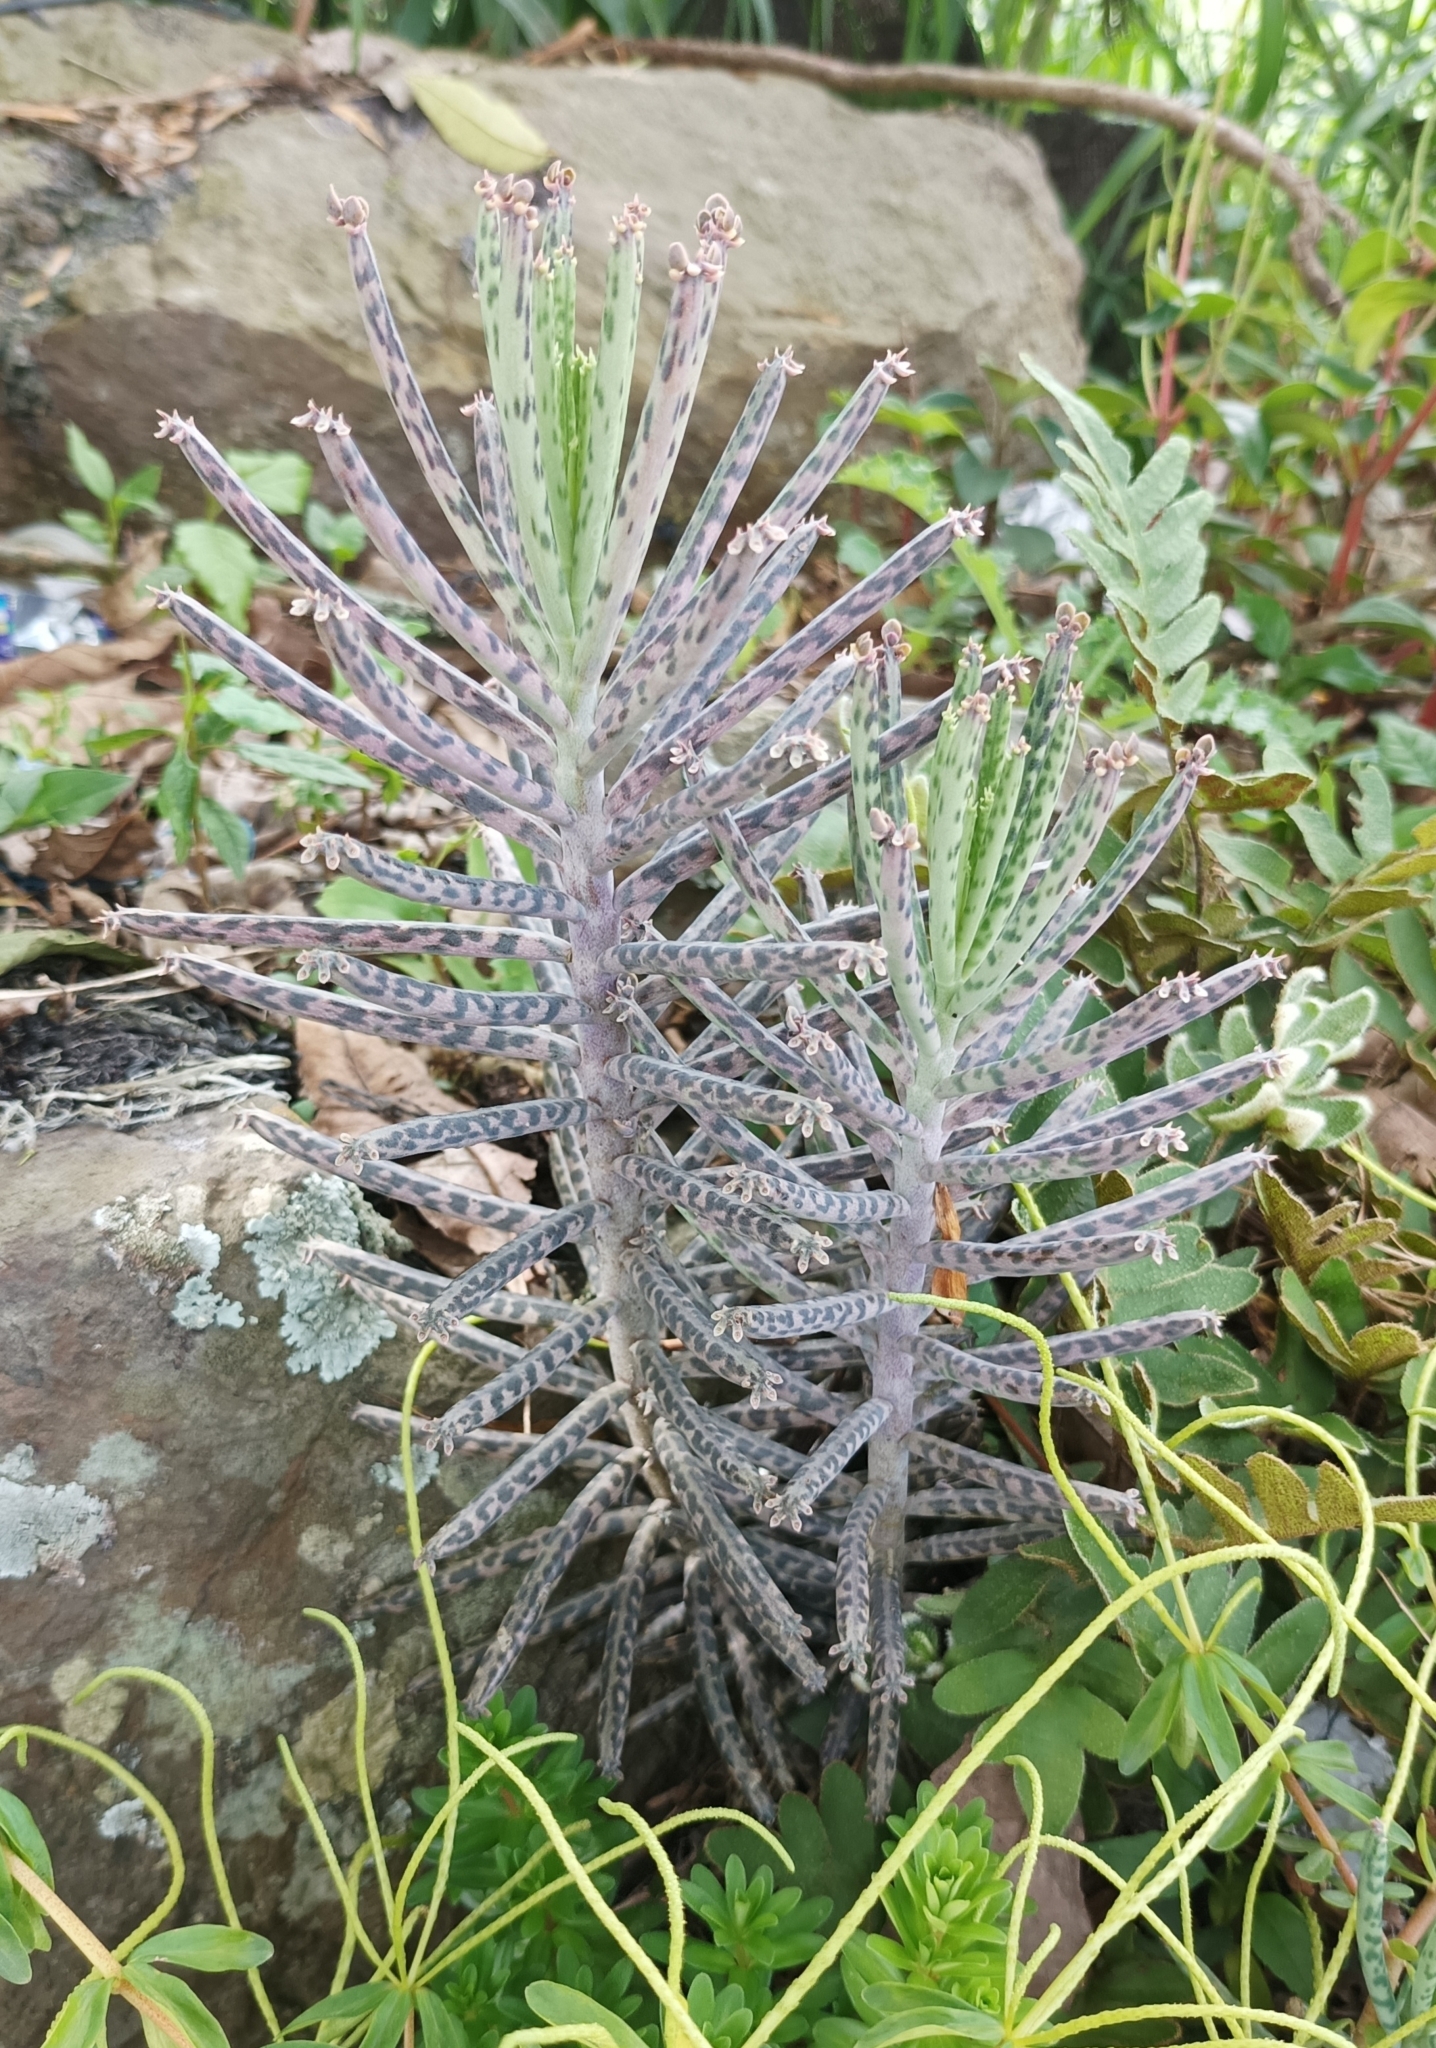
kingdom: Plantae
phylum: Tracheophyta
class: Magnoliopsida
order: Saxifragales
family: Crassulaceae
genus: Kalanchoe
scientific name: Kalanchoe delagoensis
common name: Chandelier plant
